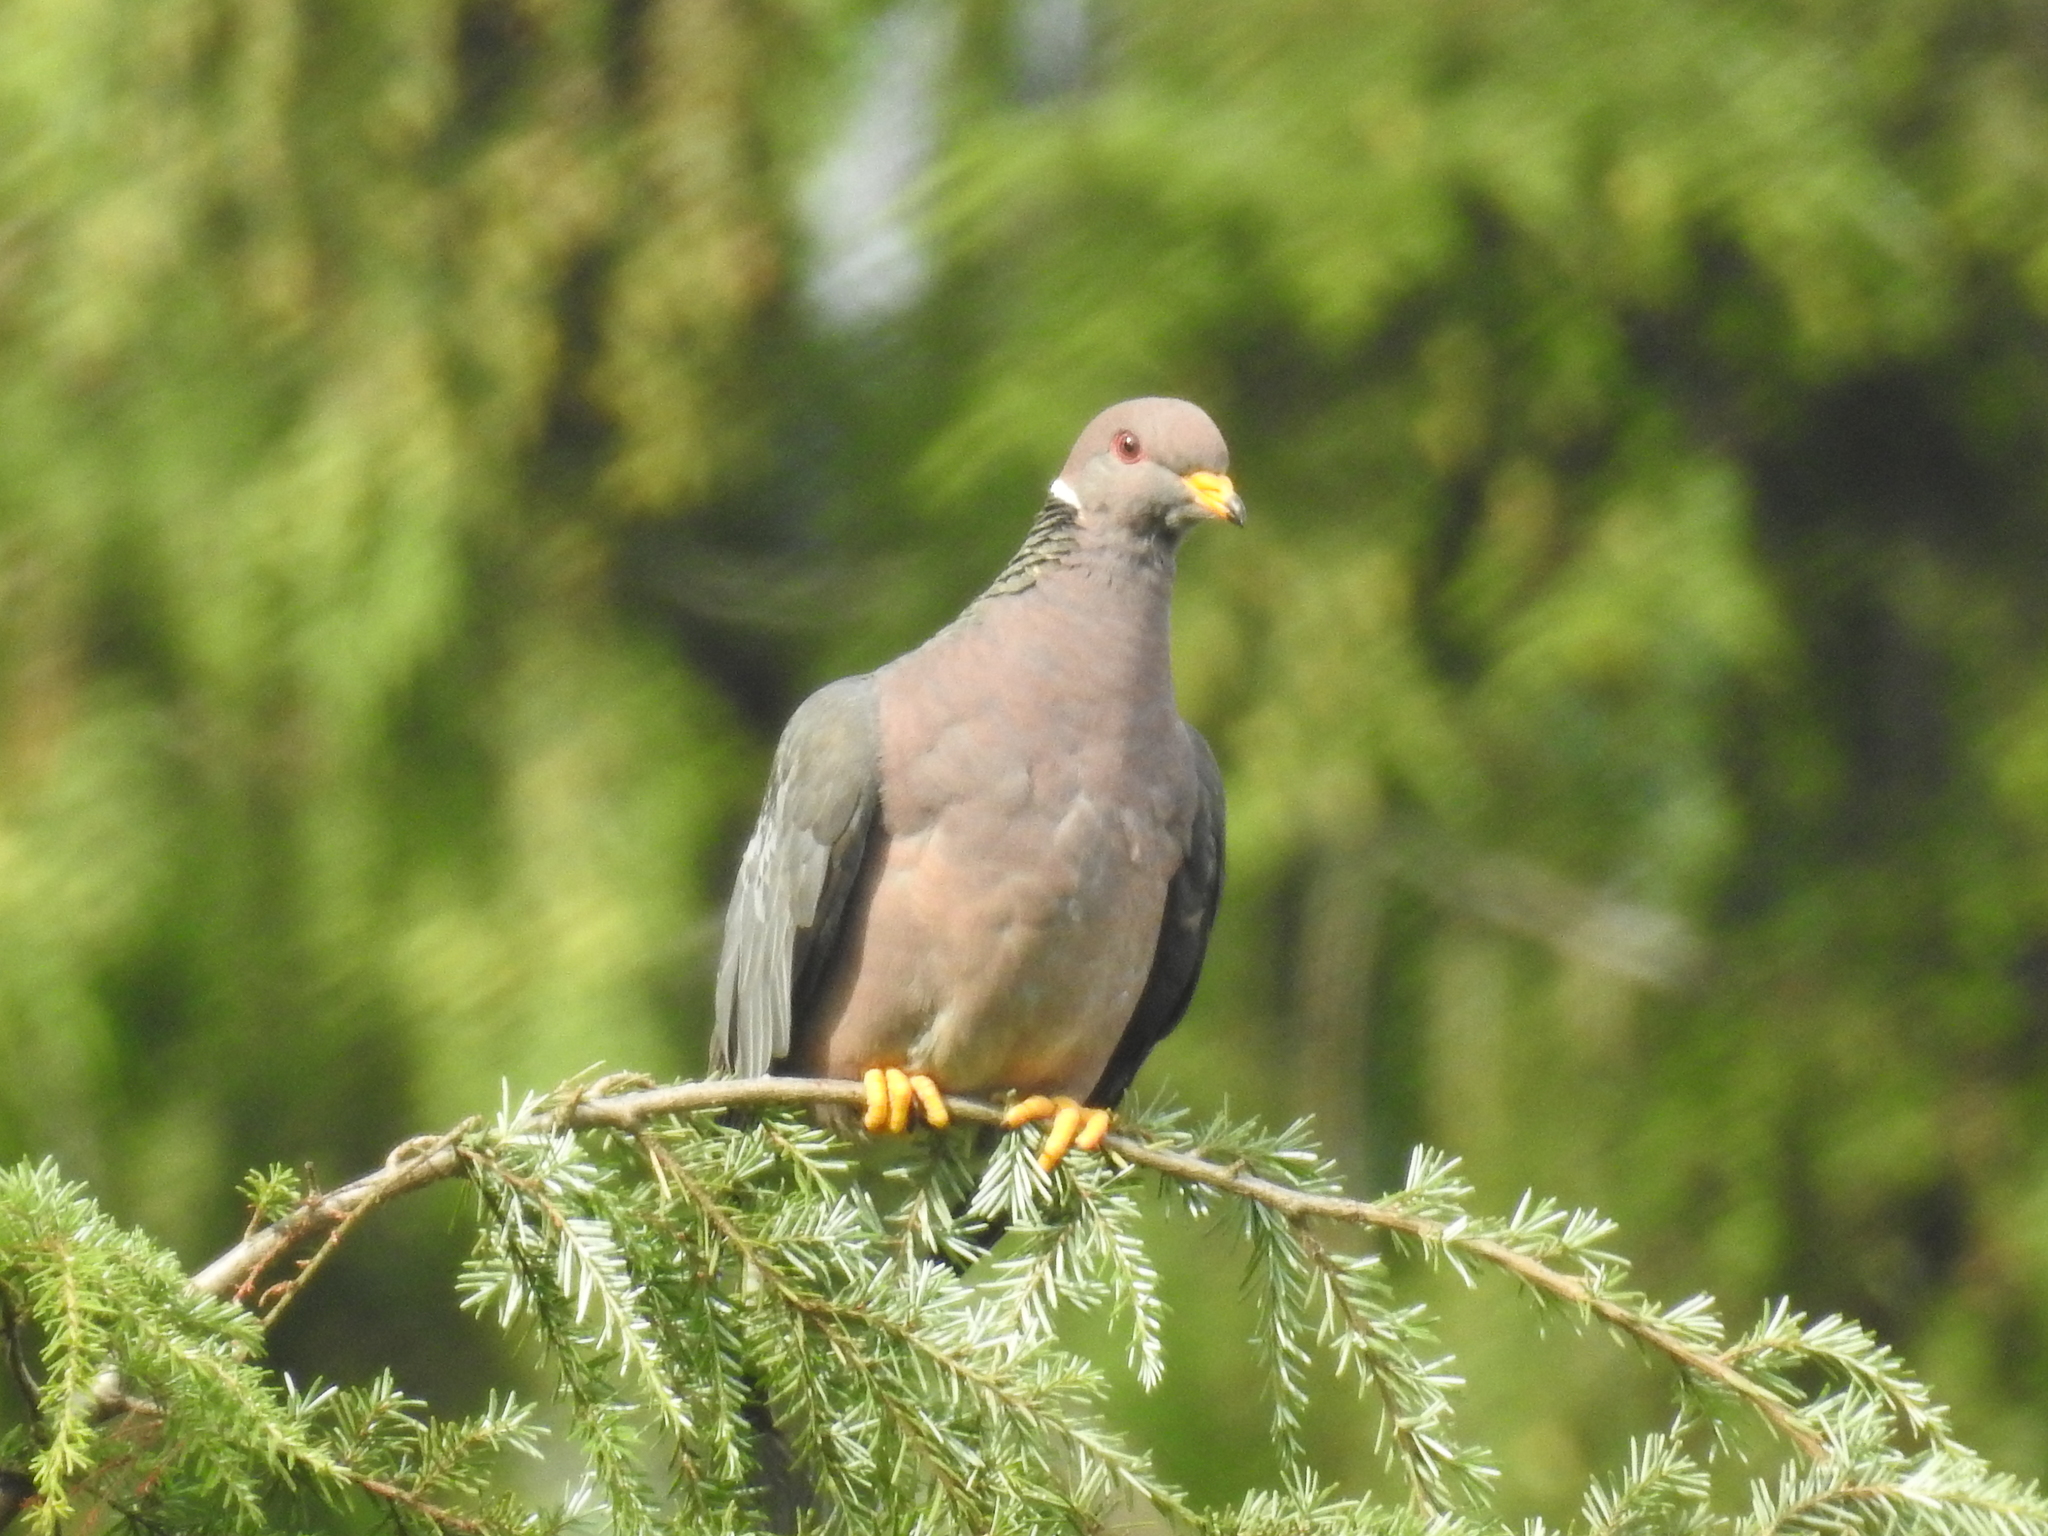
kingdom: Animalia
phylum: Chordata
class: Aves
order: Columbiformes
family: Columbidae
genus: Patagioenas
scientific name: Patagioenas fasciata
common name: Band-tailed pigeon
